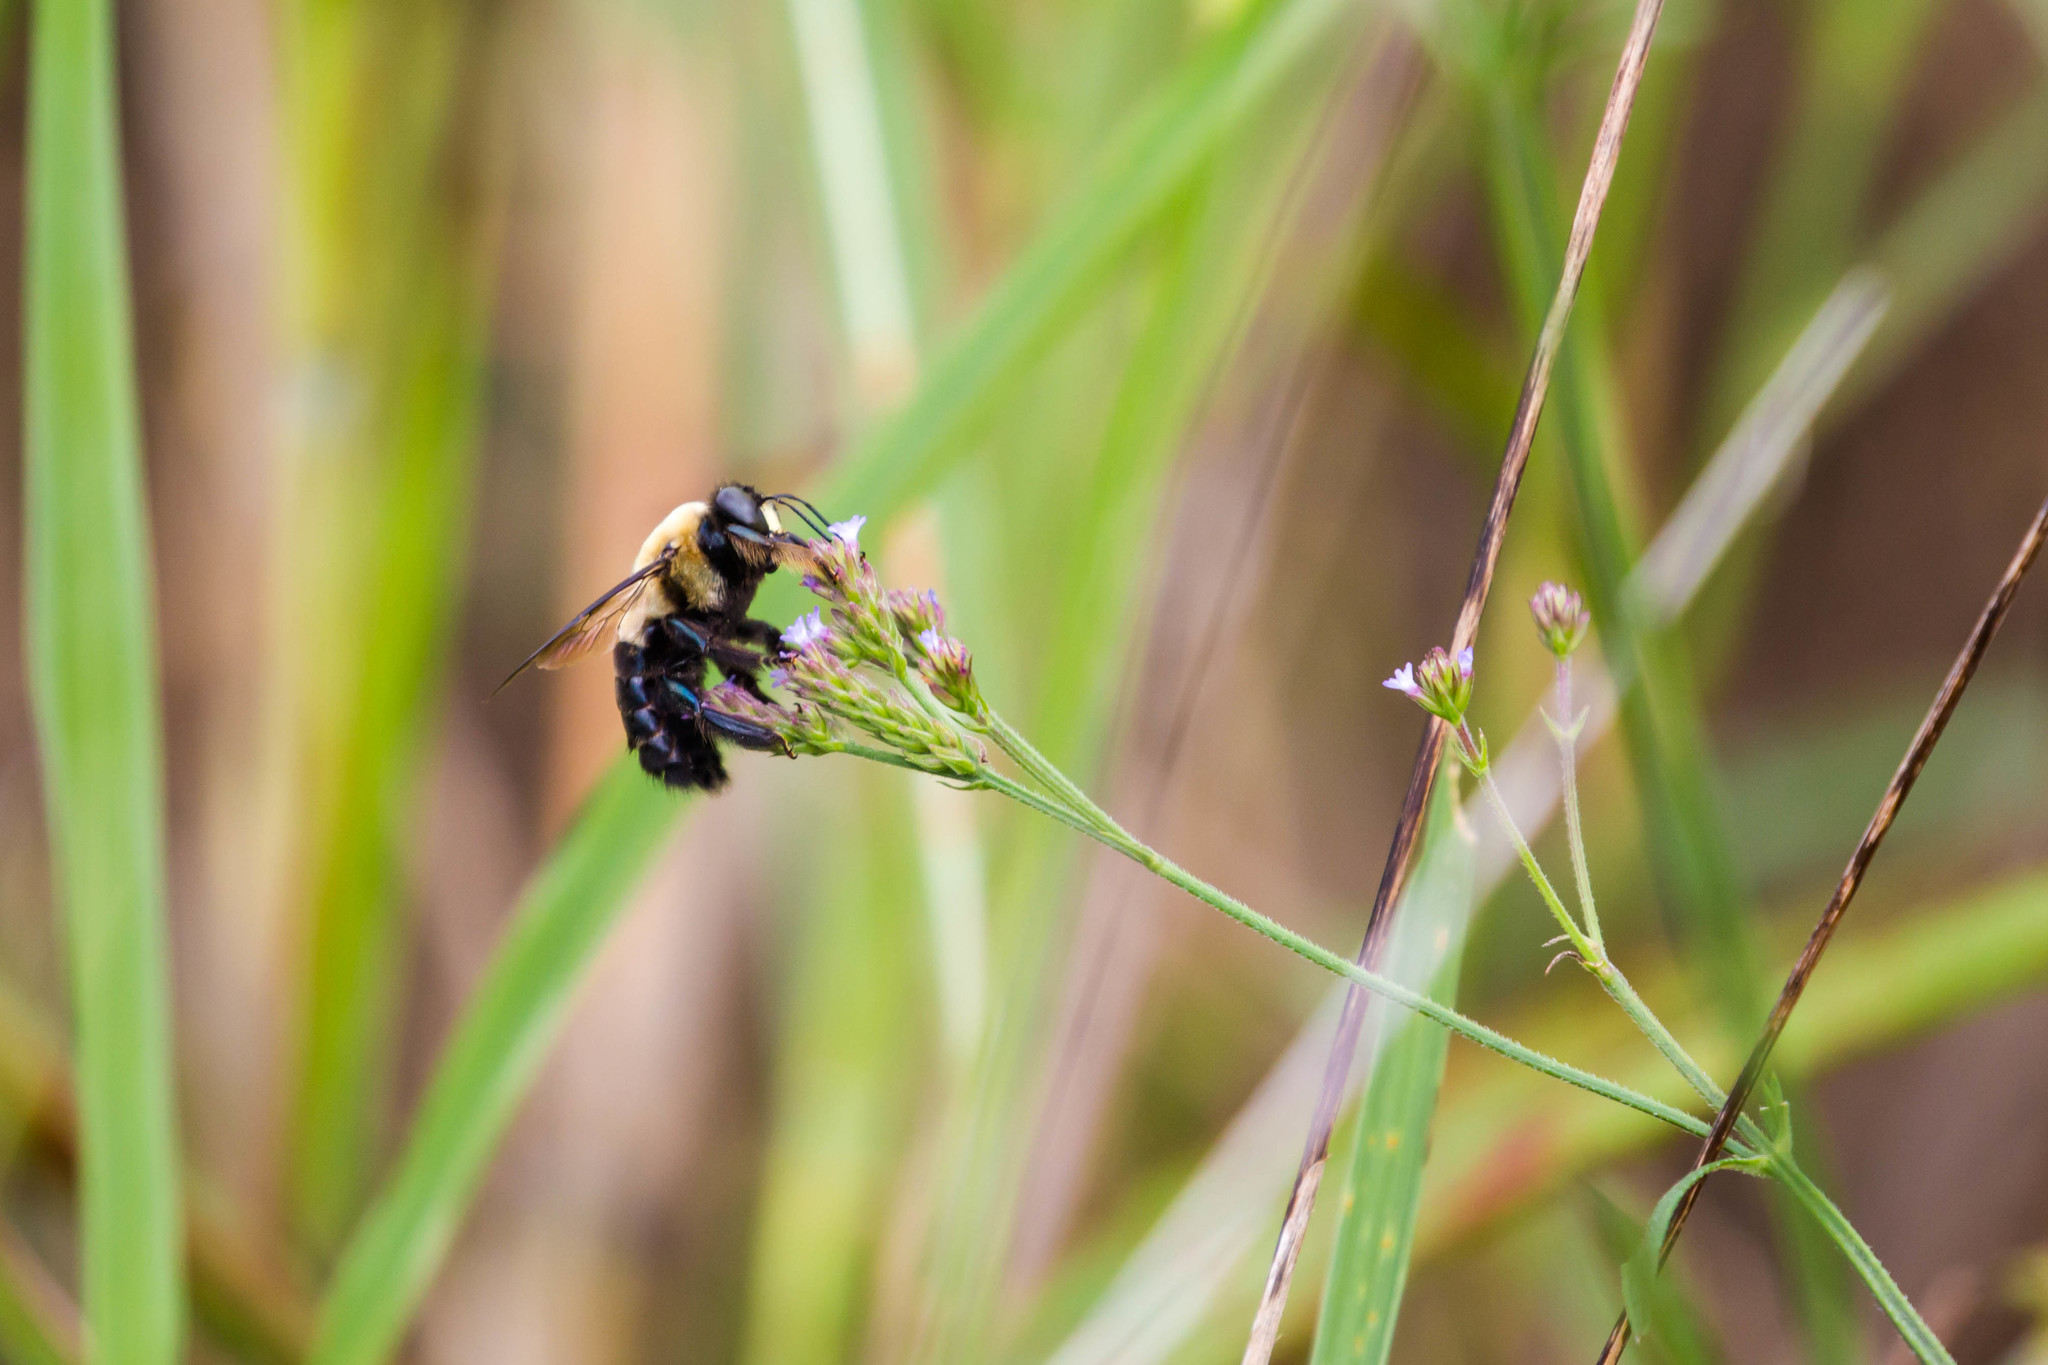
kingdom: Animalia
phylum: Arthropoda
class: Insecta
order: Hymenoptera
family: Apidae
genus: Xylocopa
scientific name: Xylocopa virginica
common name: Carpenter bee
